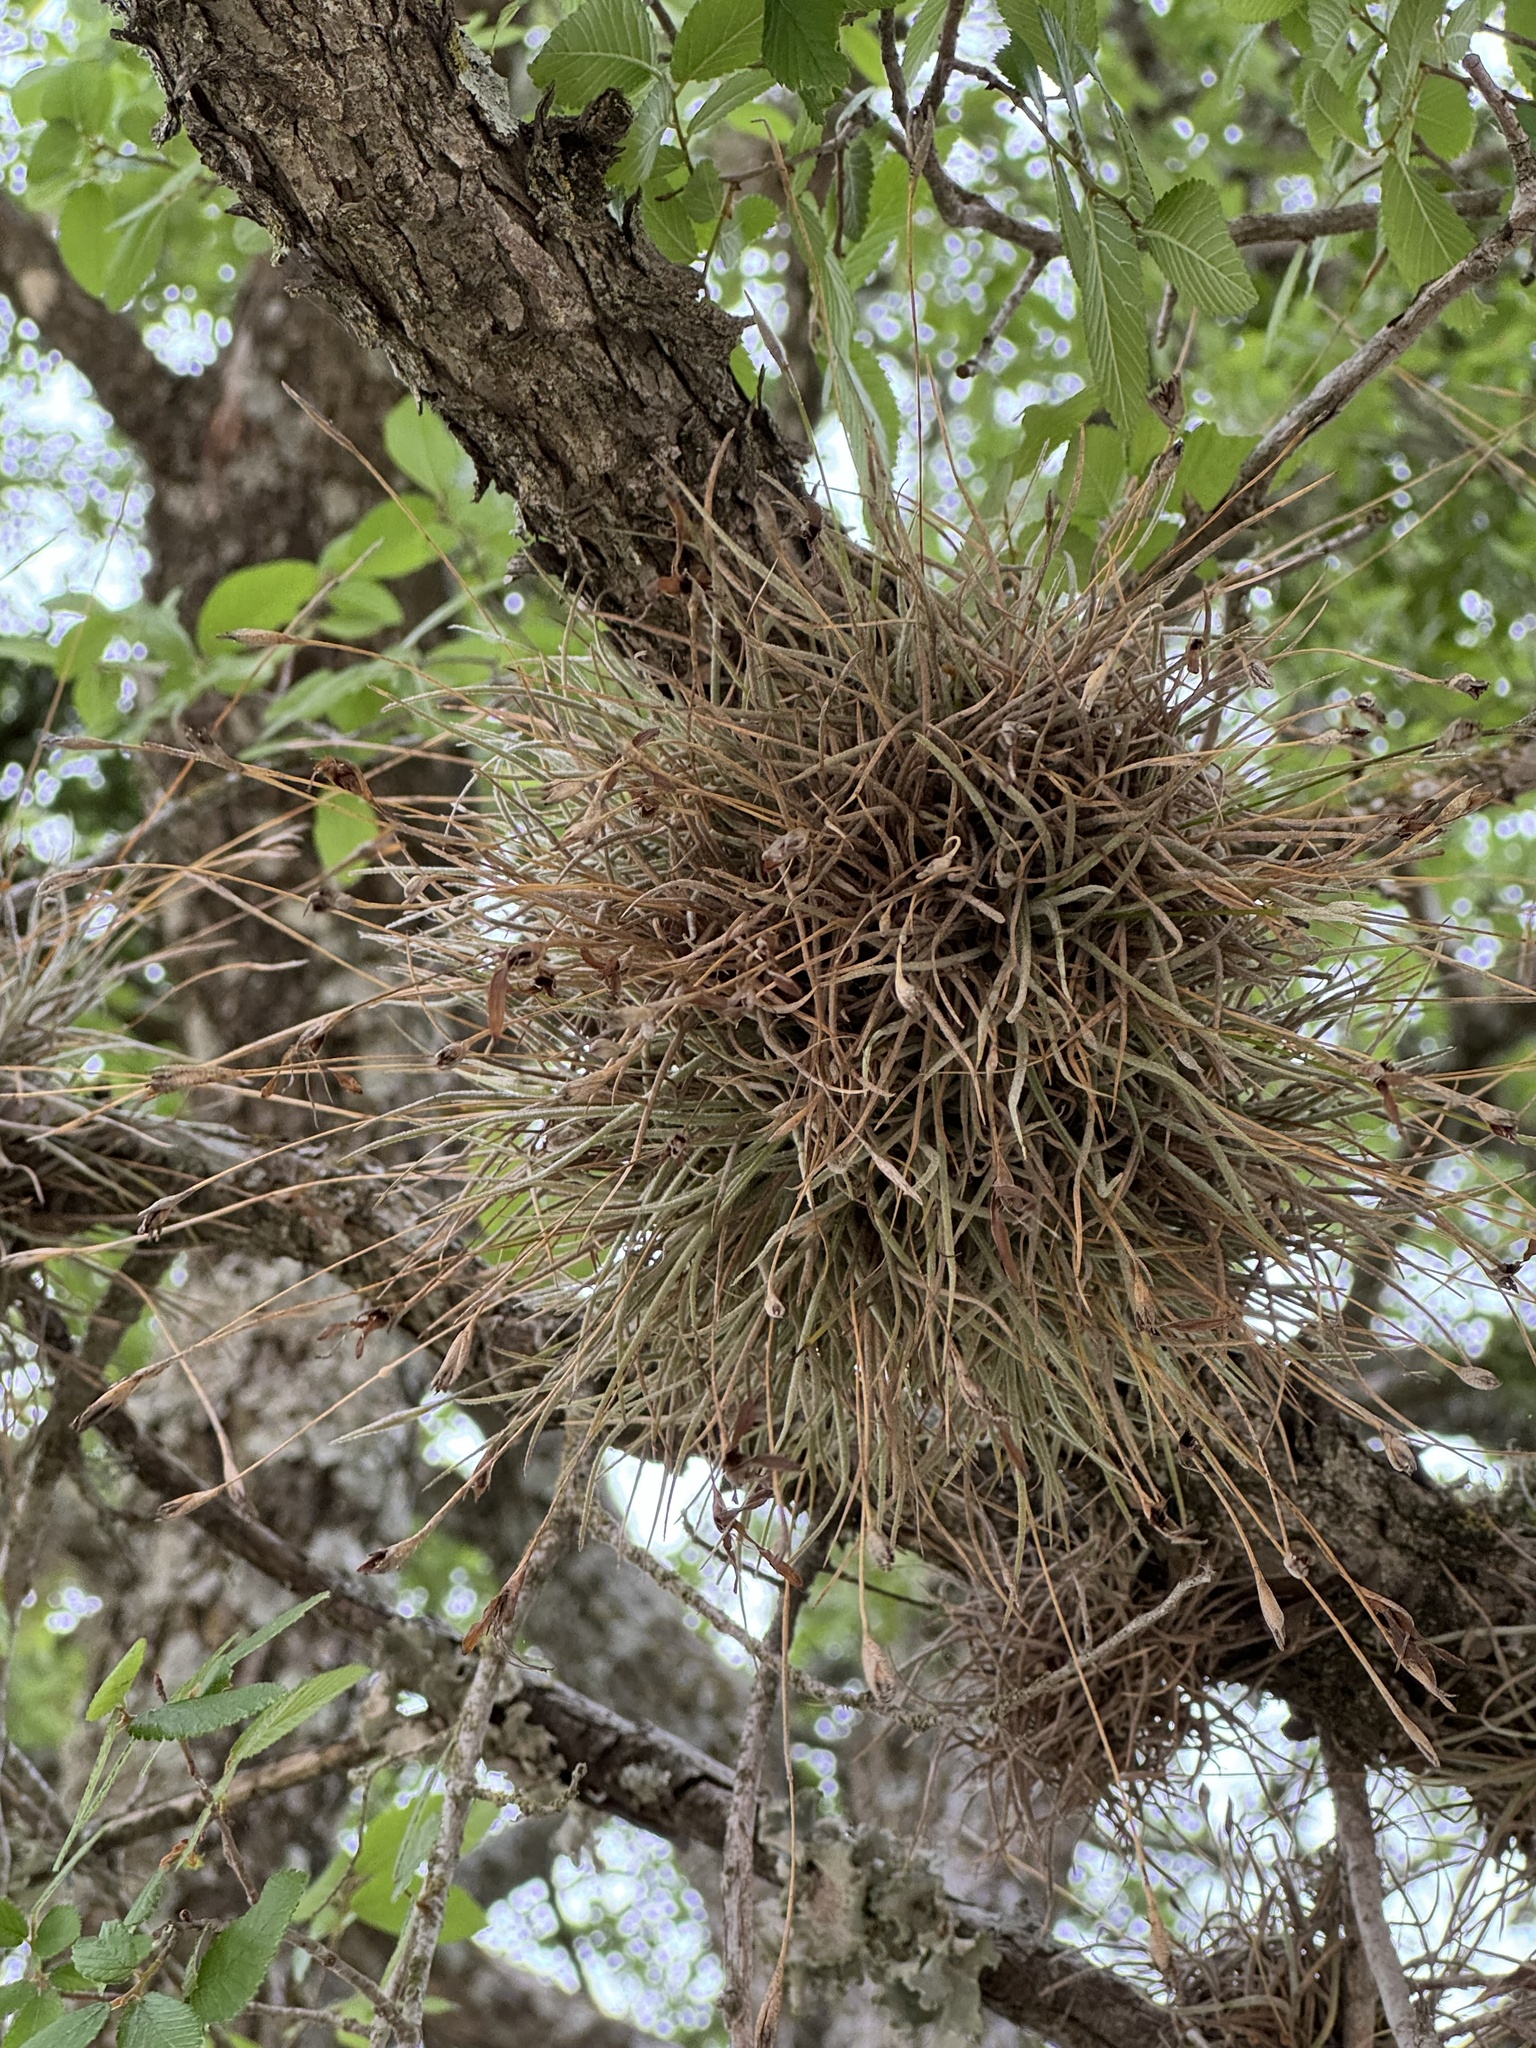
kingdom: Plantae
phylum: Tracheophyta
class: Liliopsida
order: Poales
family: Bromeliaceae
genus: Tillandsia
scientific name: Tillandsia recurvata
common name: Small ballmoss
